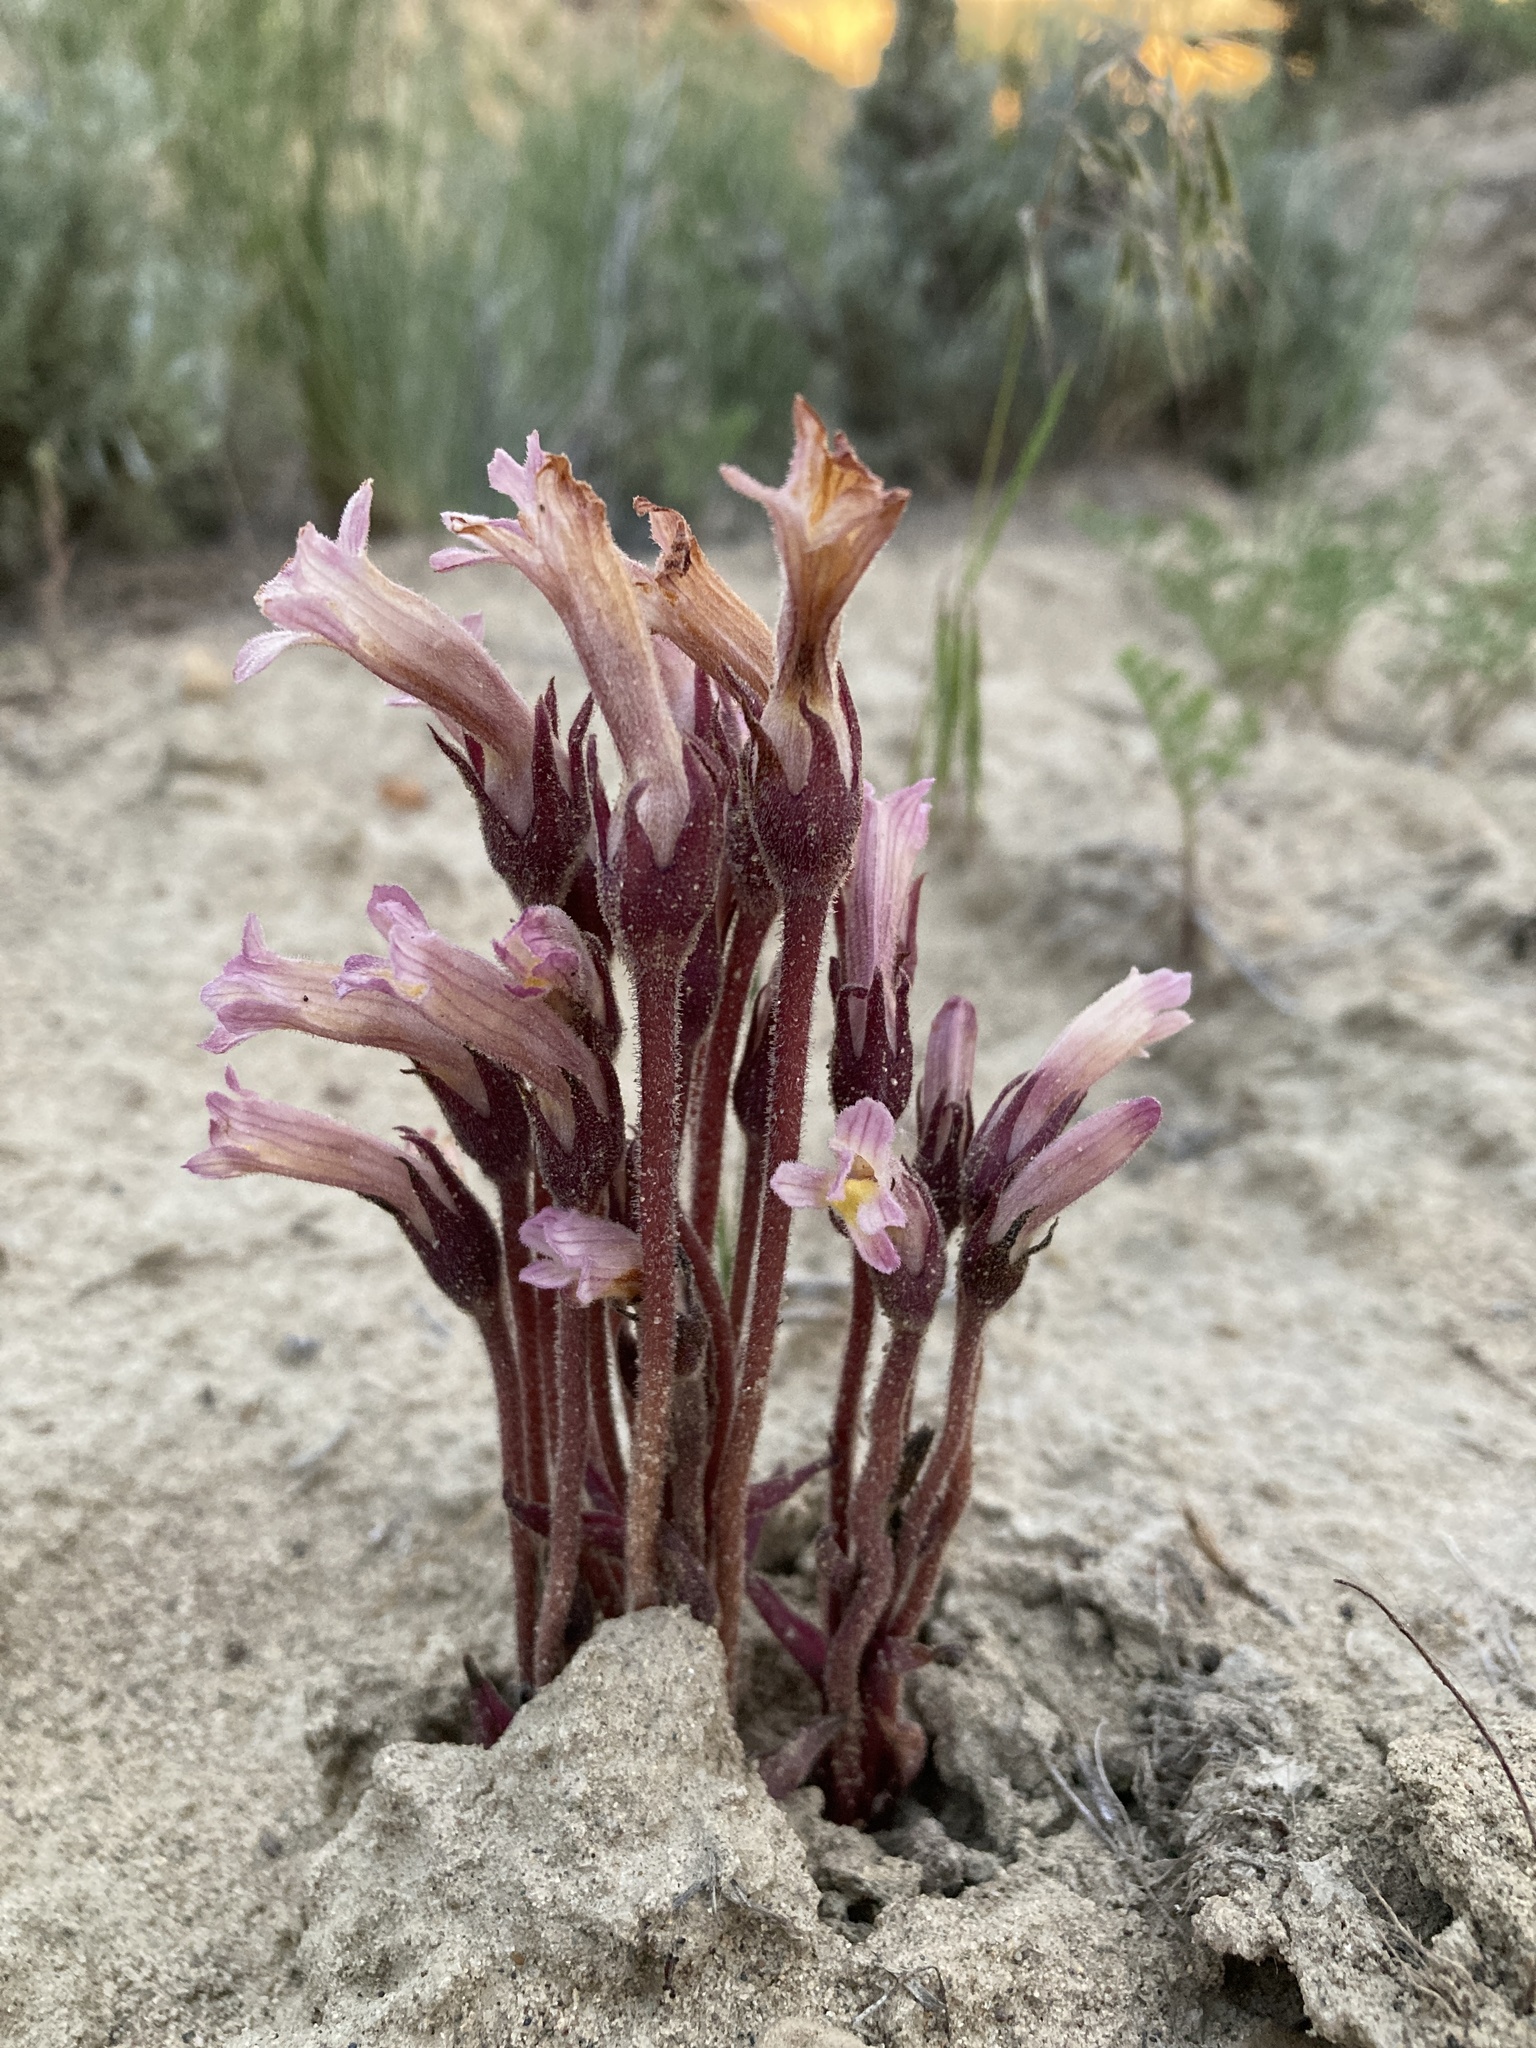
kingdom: Plantae
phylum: Tracheophyta
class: Magnoliopsida
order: Lamiales
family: Orobanchaceae
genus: Aphyllon
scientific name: Aphyllon fasciculatum
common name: Clustered broomrape
